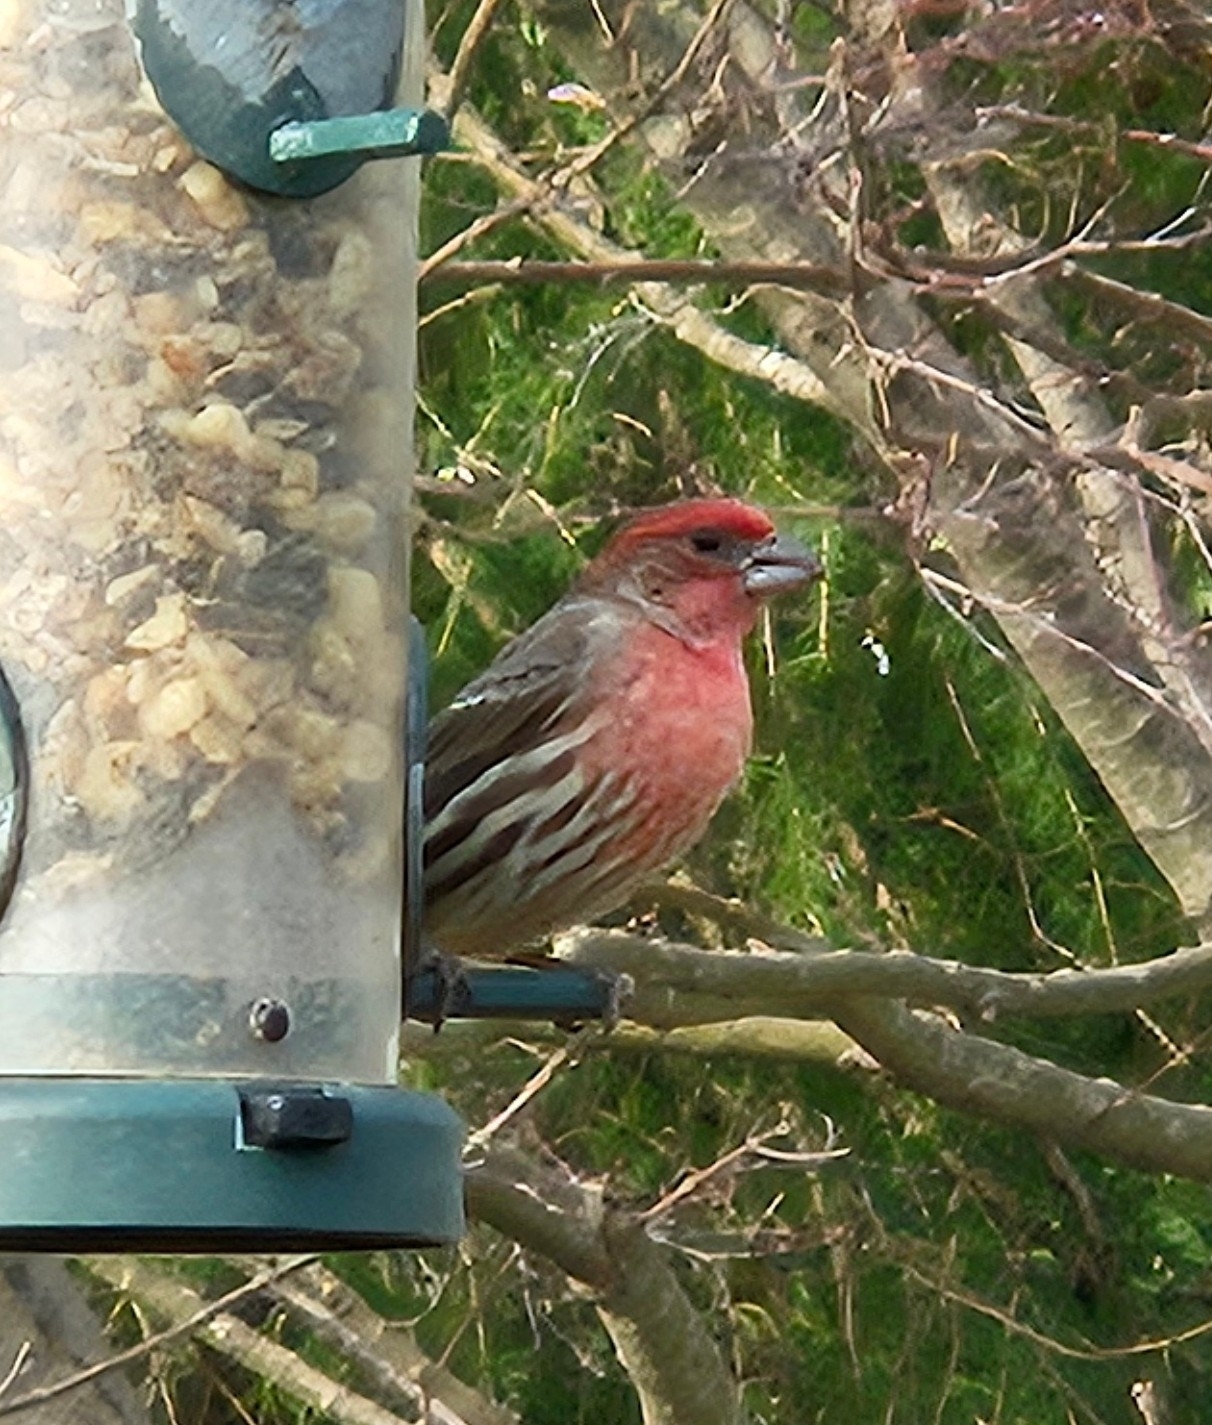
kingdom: Animalia
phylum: Chordata
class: Aves
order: Passeriformes
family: Fringillidae
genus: Haemorhous
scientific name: Haemorhous mexicanus
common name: House finch
